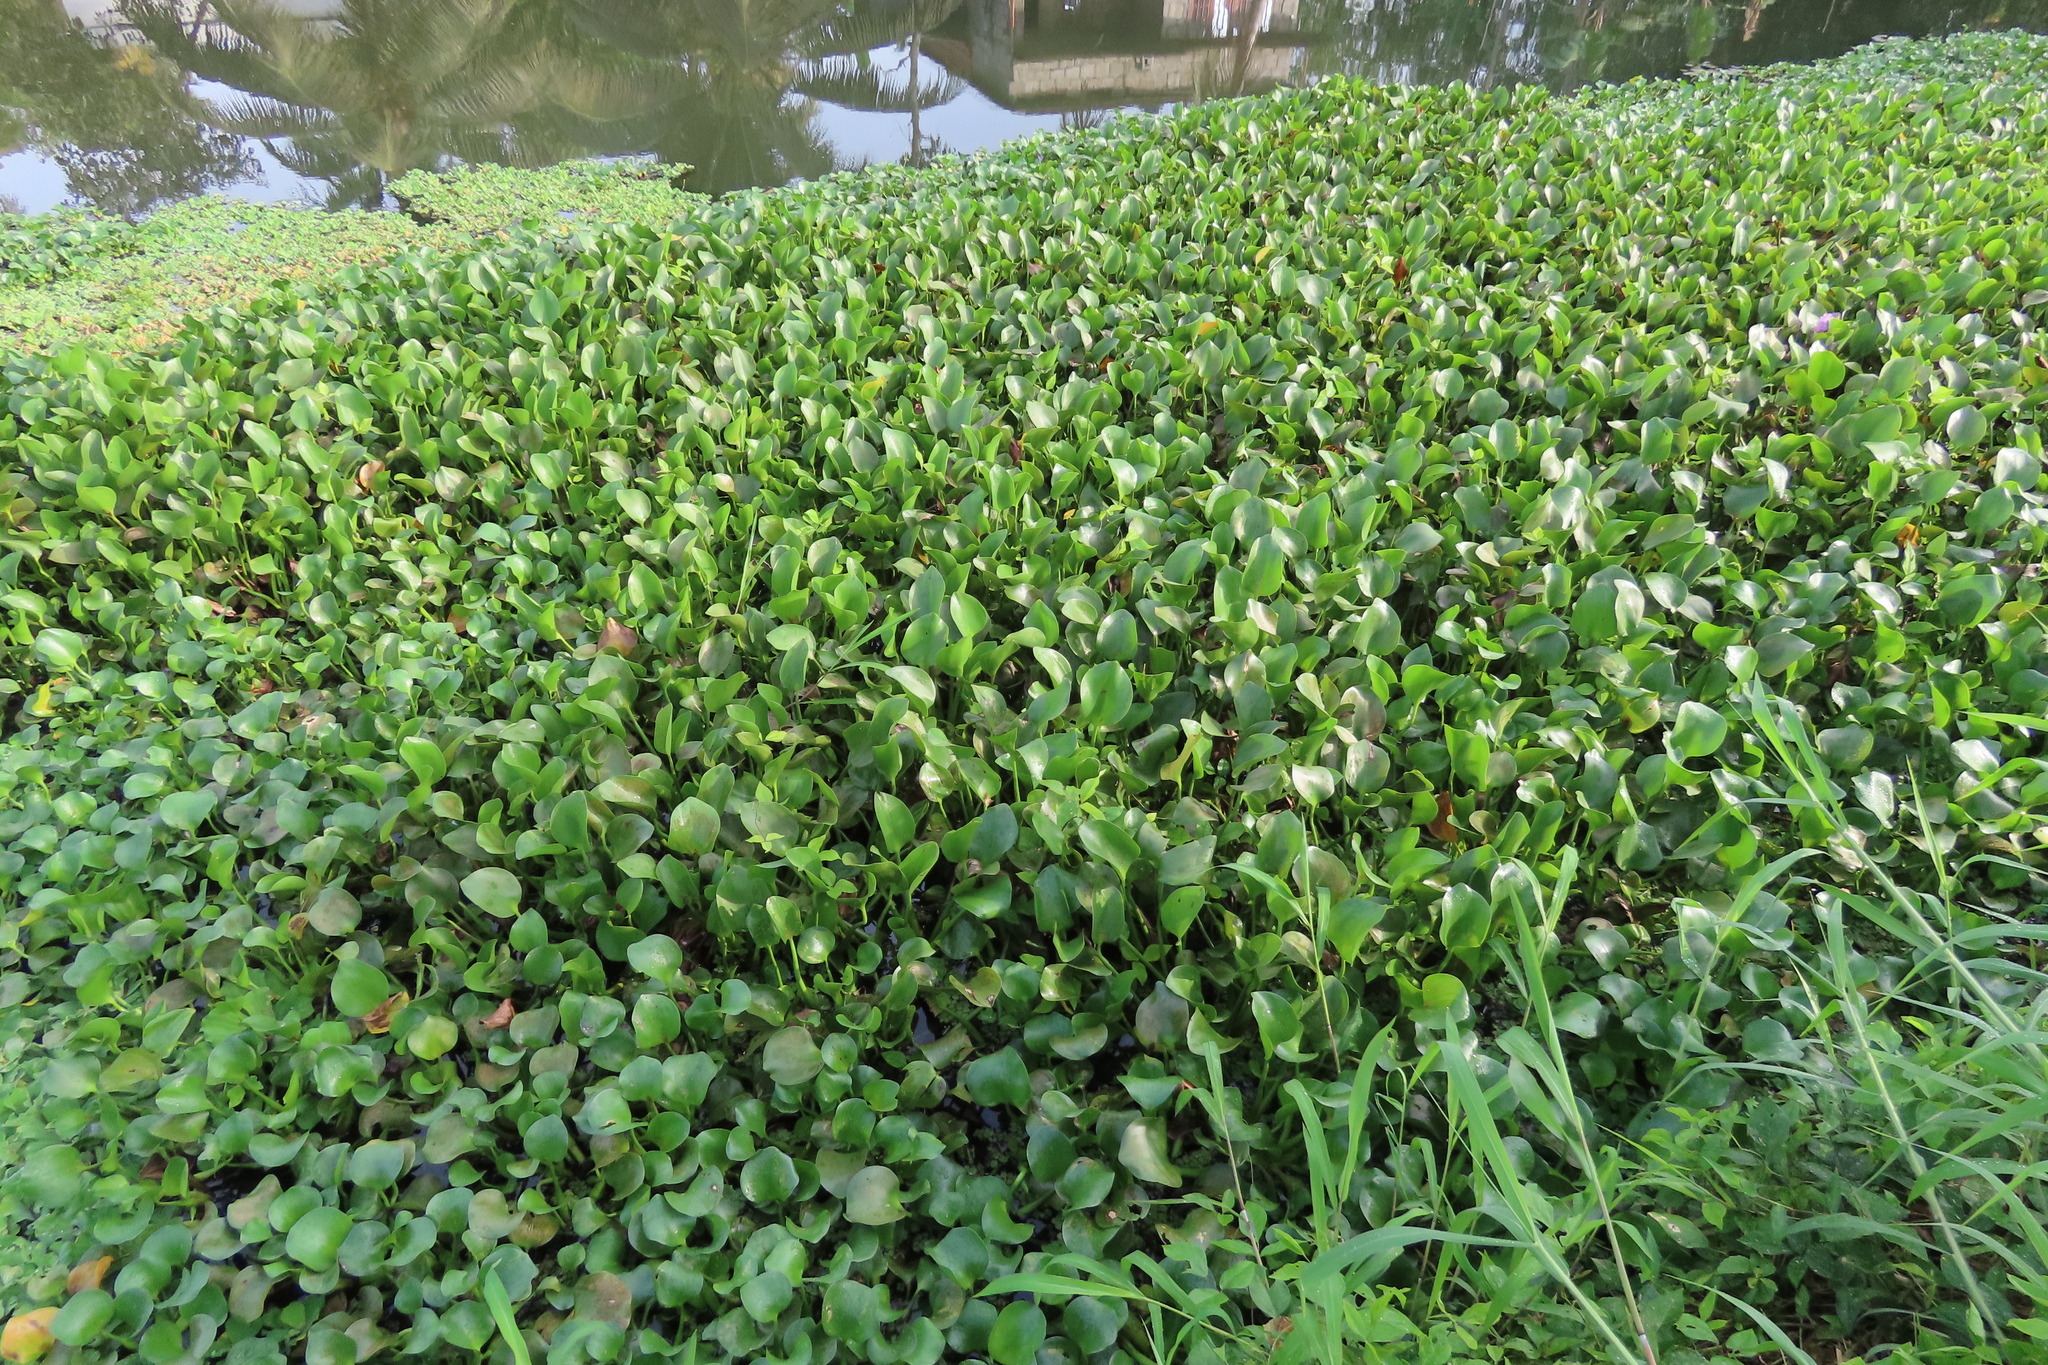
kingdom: Plantae
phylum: Tracheophyta
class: Liliopsida
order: Commelinales
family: Pontederiaceae
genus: Pontederia
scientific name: Pontederia crassipes
